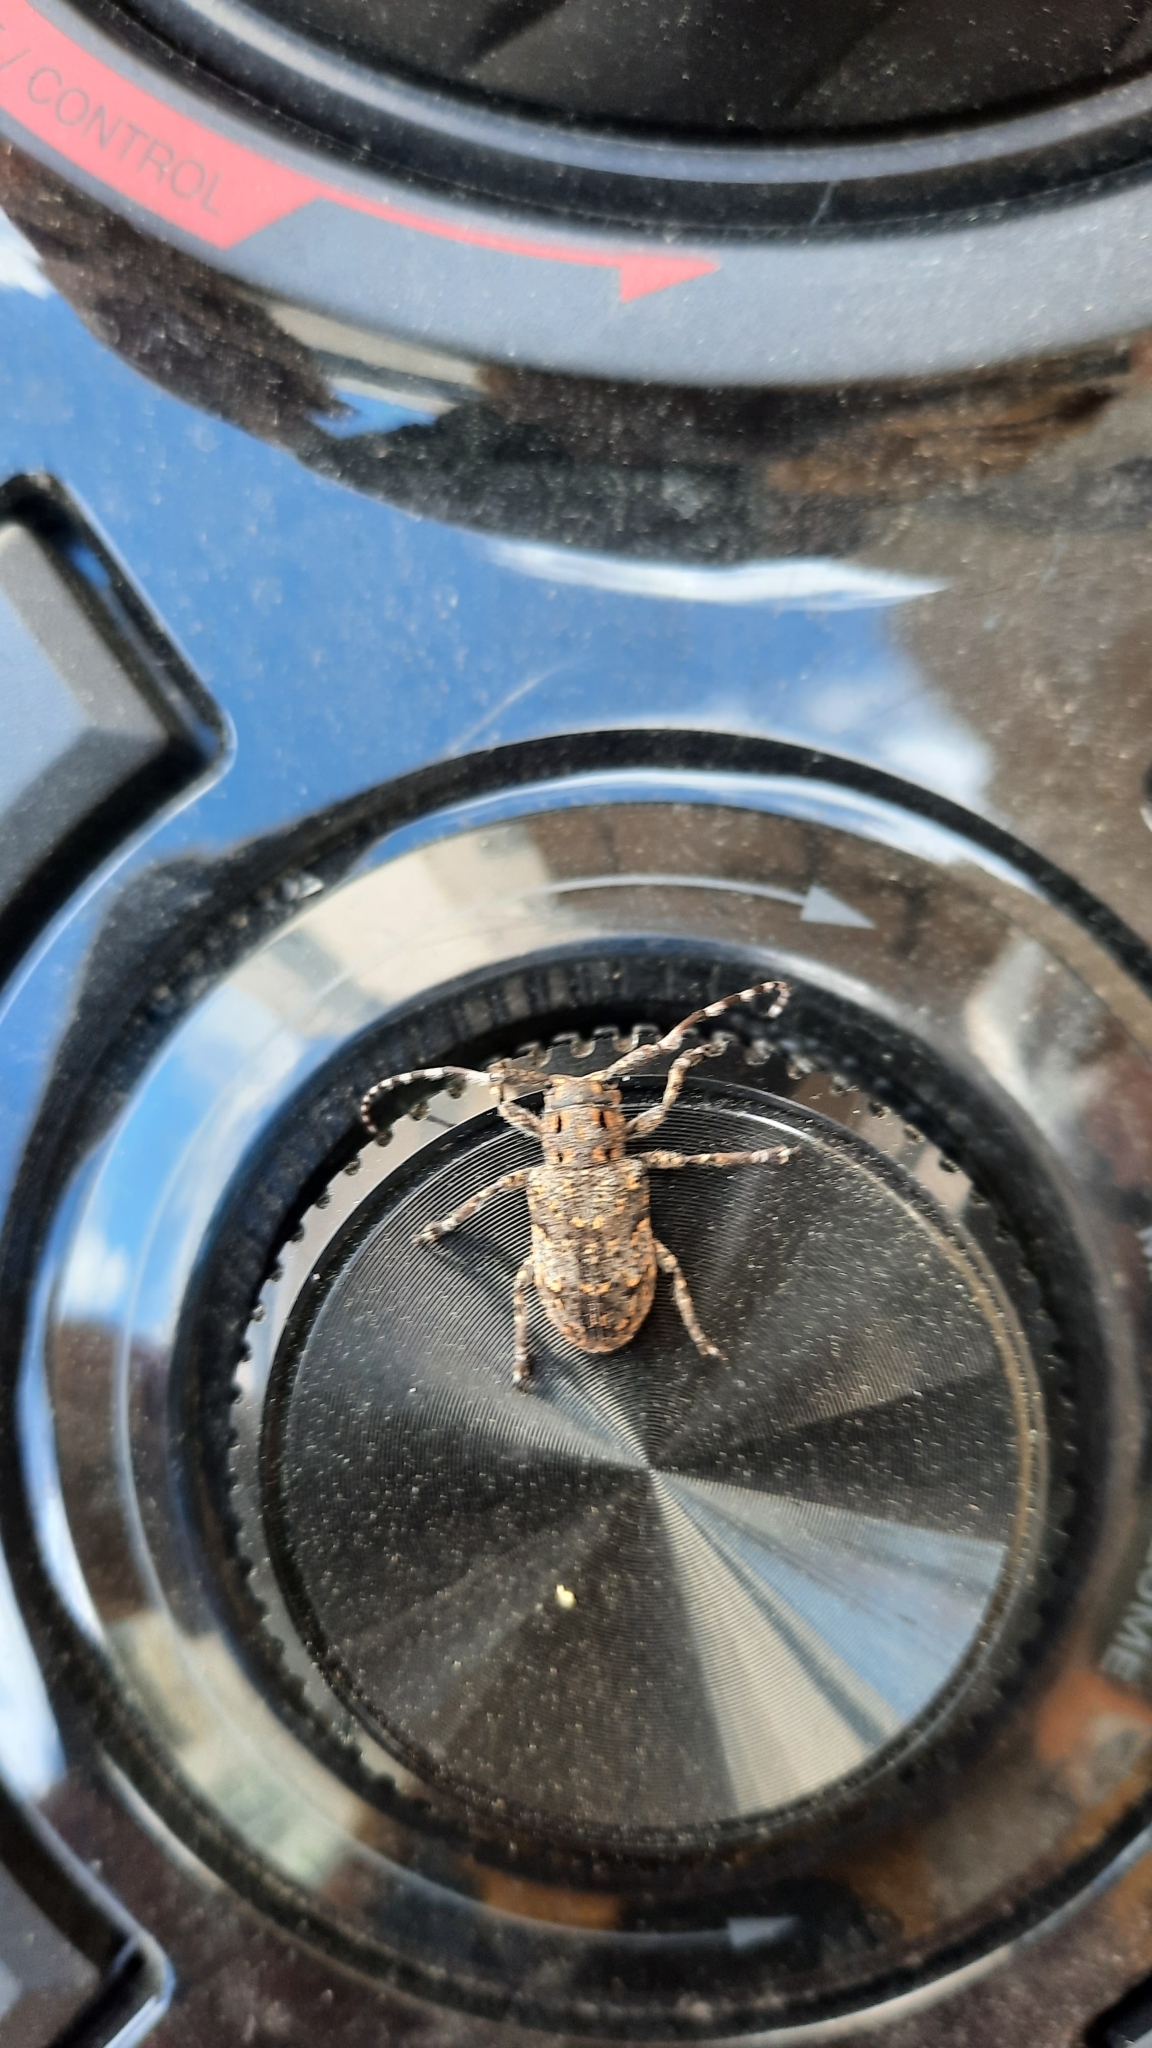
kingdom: Animalia
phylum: Arthropoda
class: Insecta
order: Coleoptera
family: Cerambycidae
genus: Mesosa
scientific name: Mesosa myops
